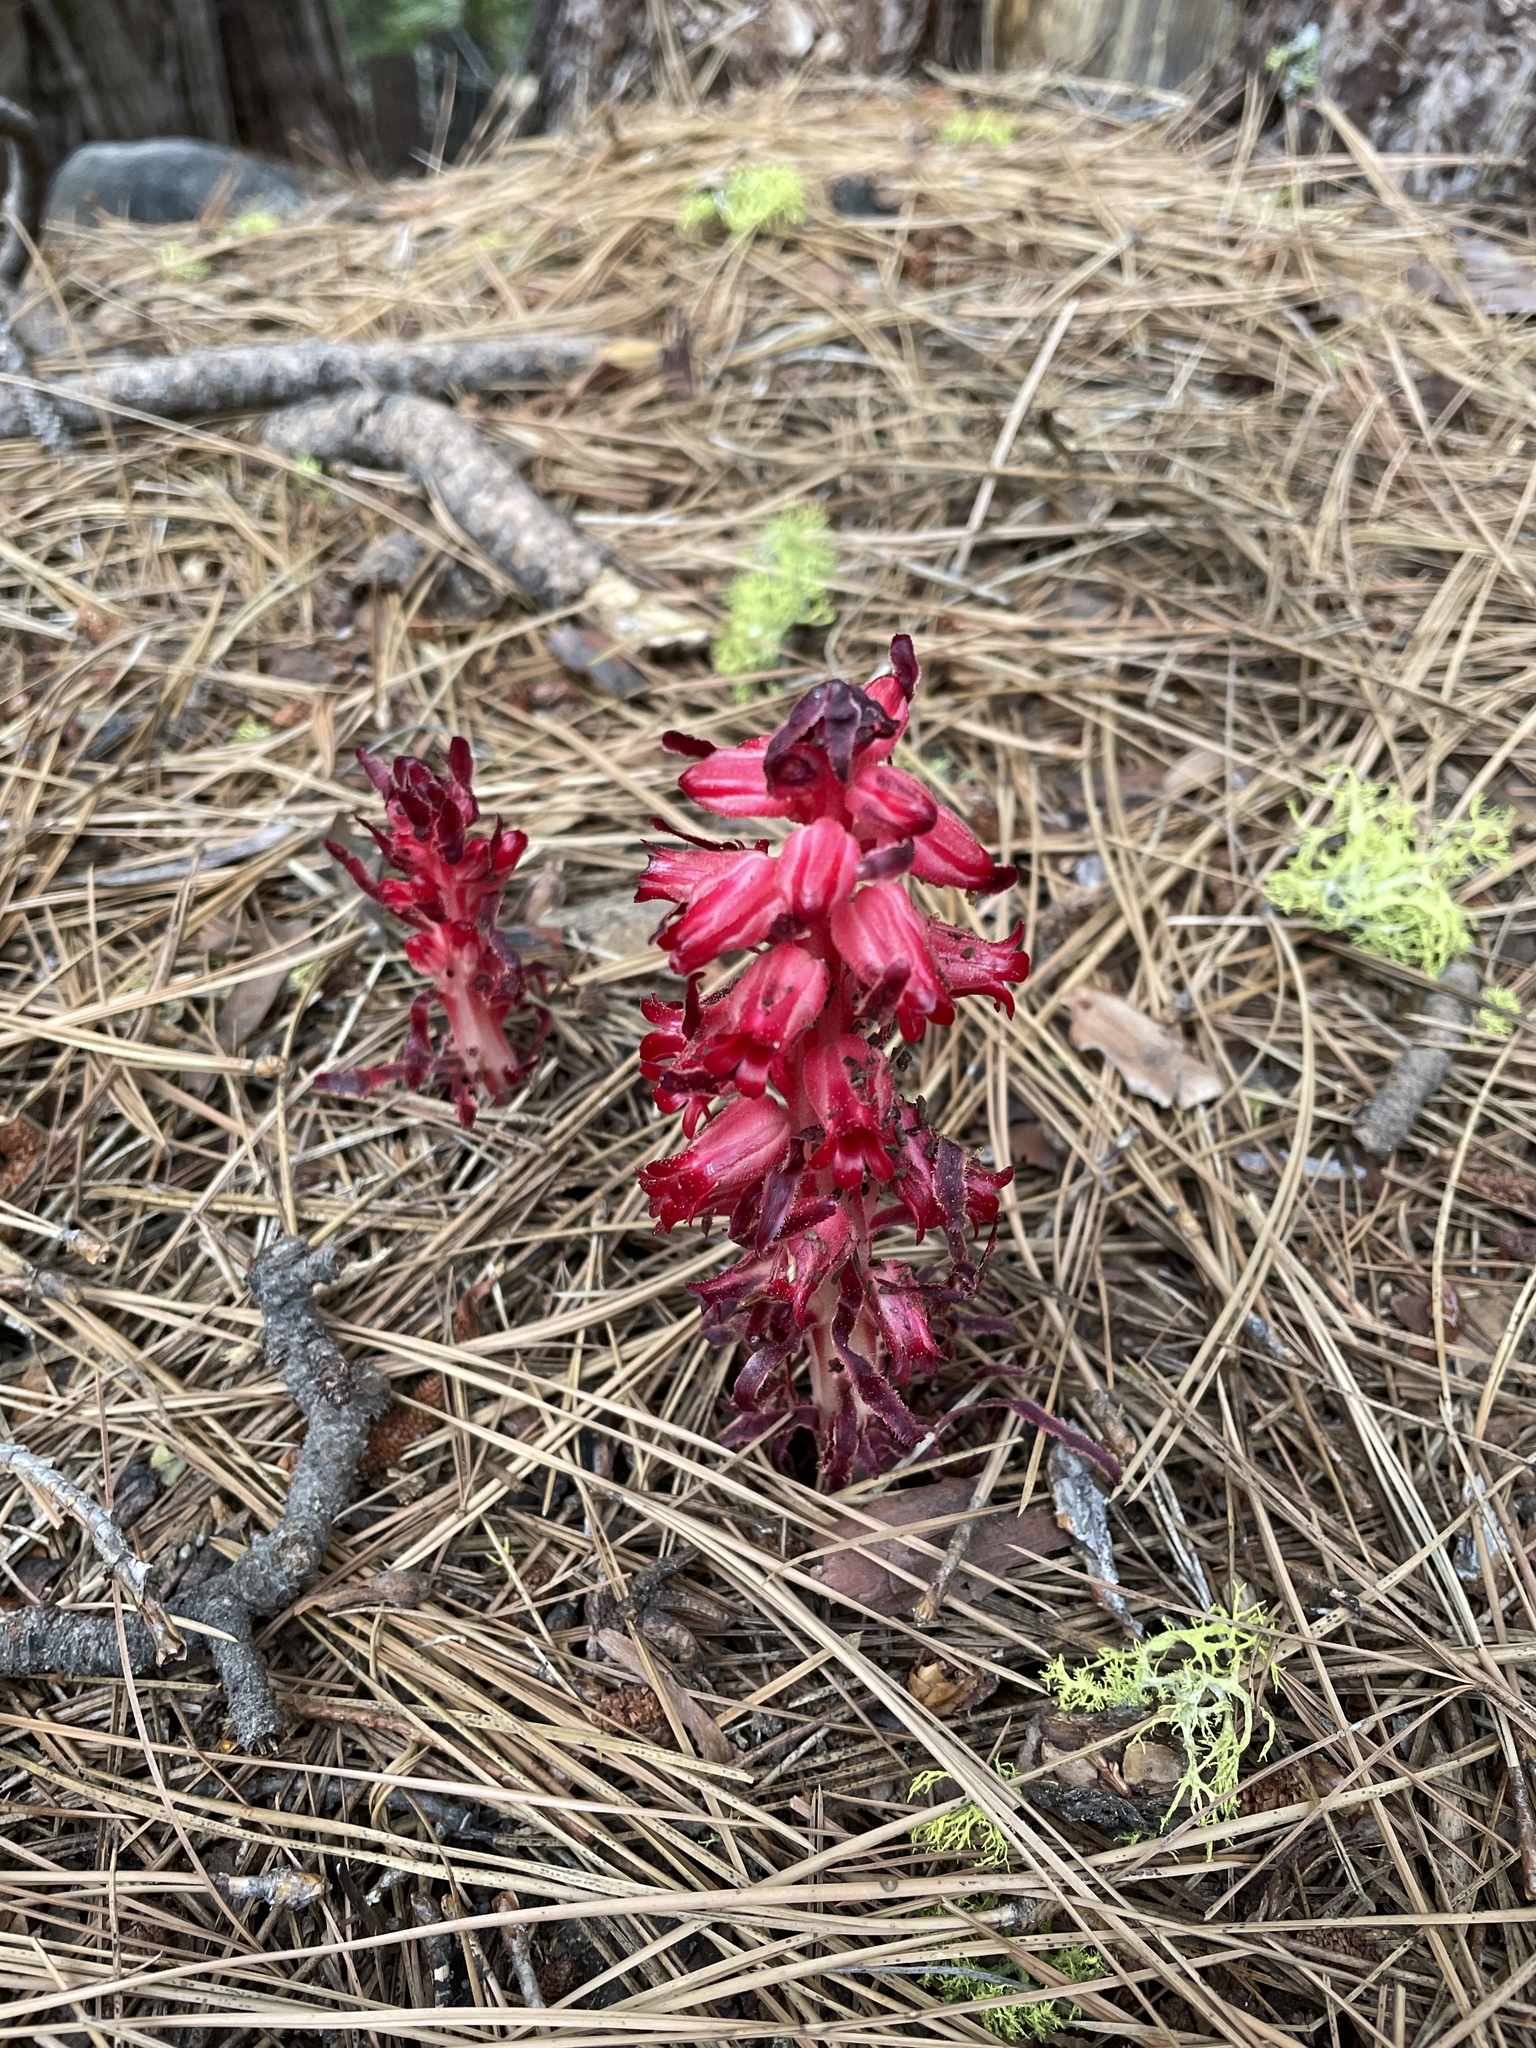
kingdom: Plantae
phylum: Tracheophyta
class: Magnoliopsida
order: Ericales
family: Ericaceae
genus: Sarcodes
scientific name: Sarcodes sanguinea
